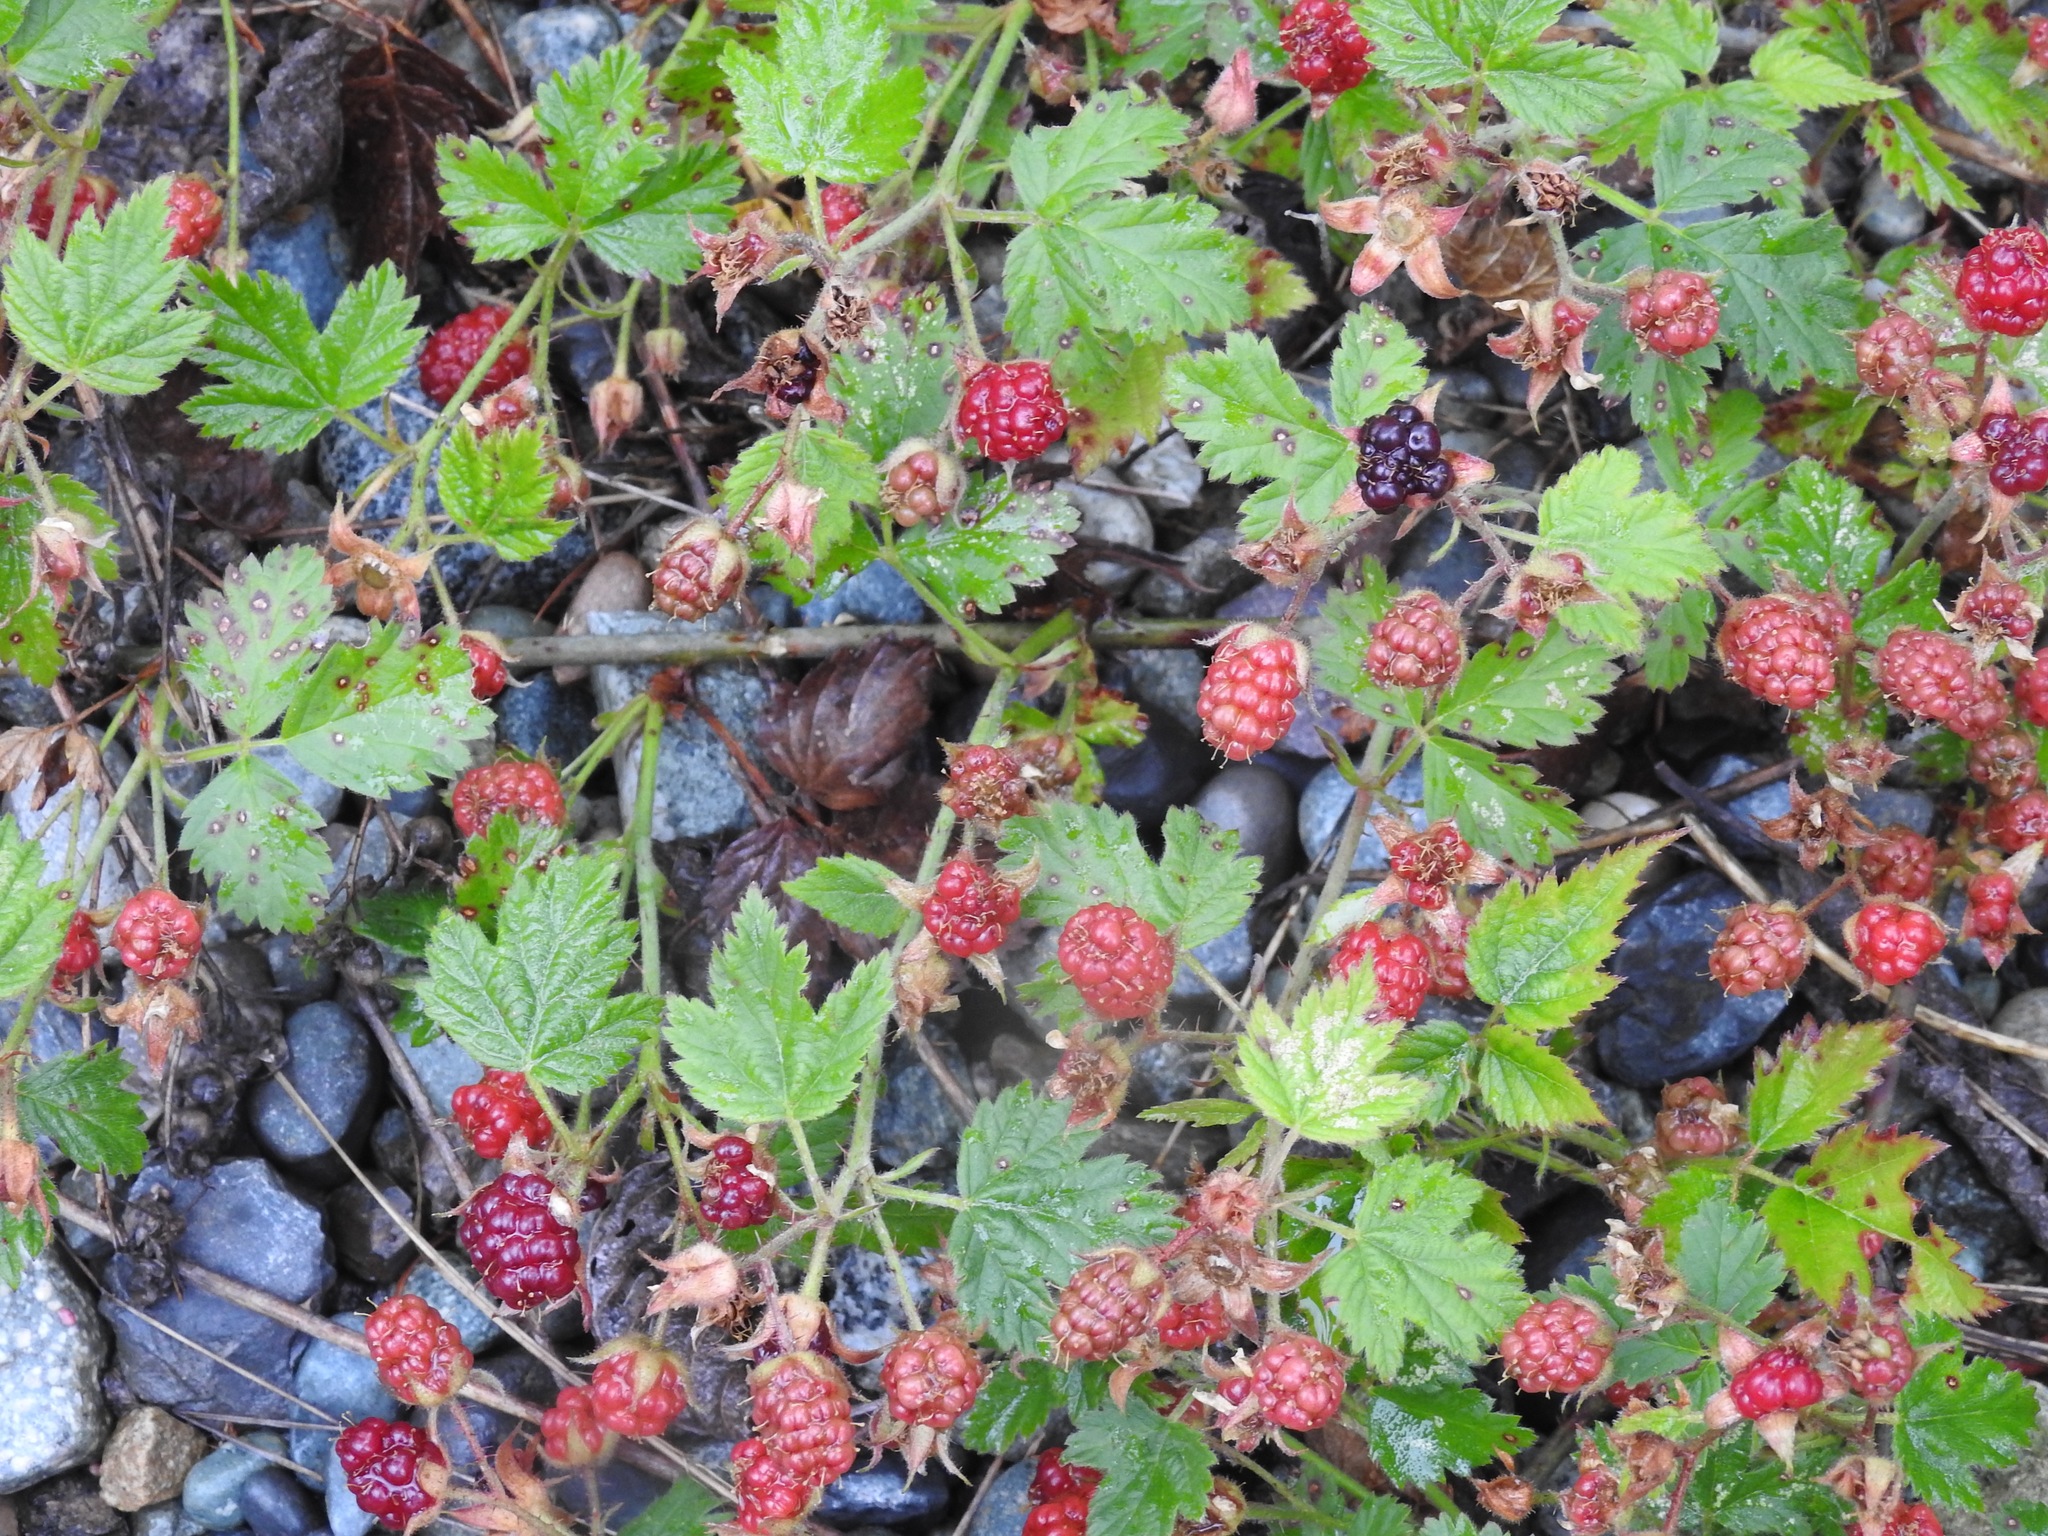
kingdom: Plantae
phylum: Tracheophyta
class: Magnoliopsida
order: Rosales
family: Rosaceae
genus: Rubus
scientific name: Rubus ursinus
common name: Pacific blackberry
